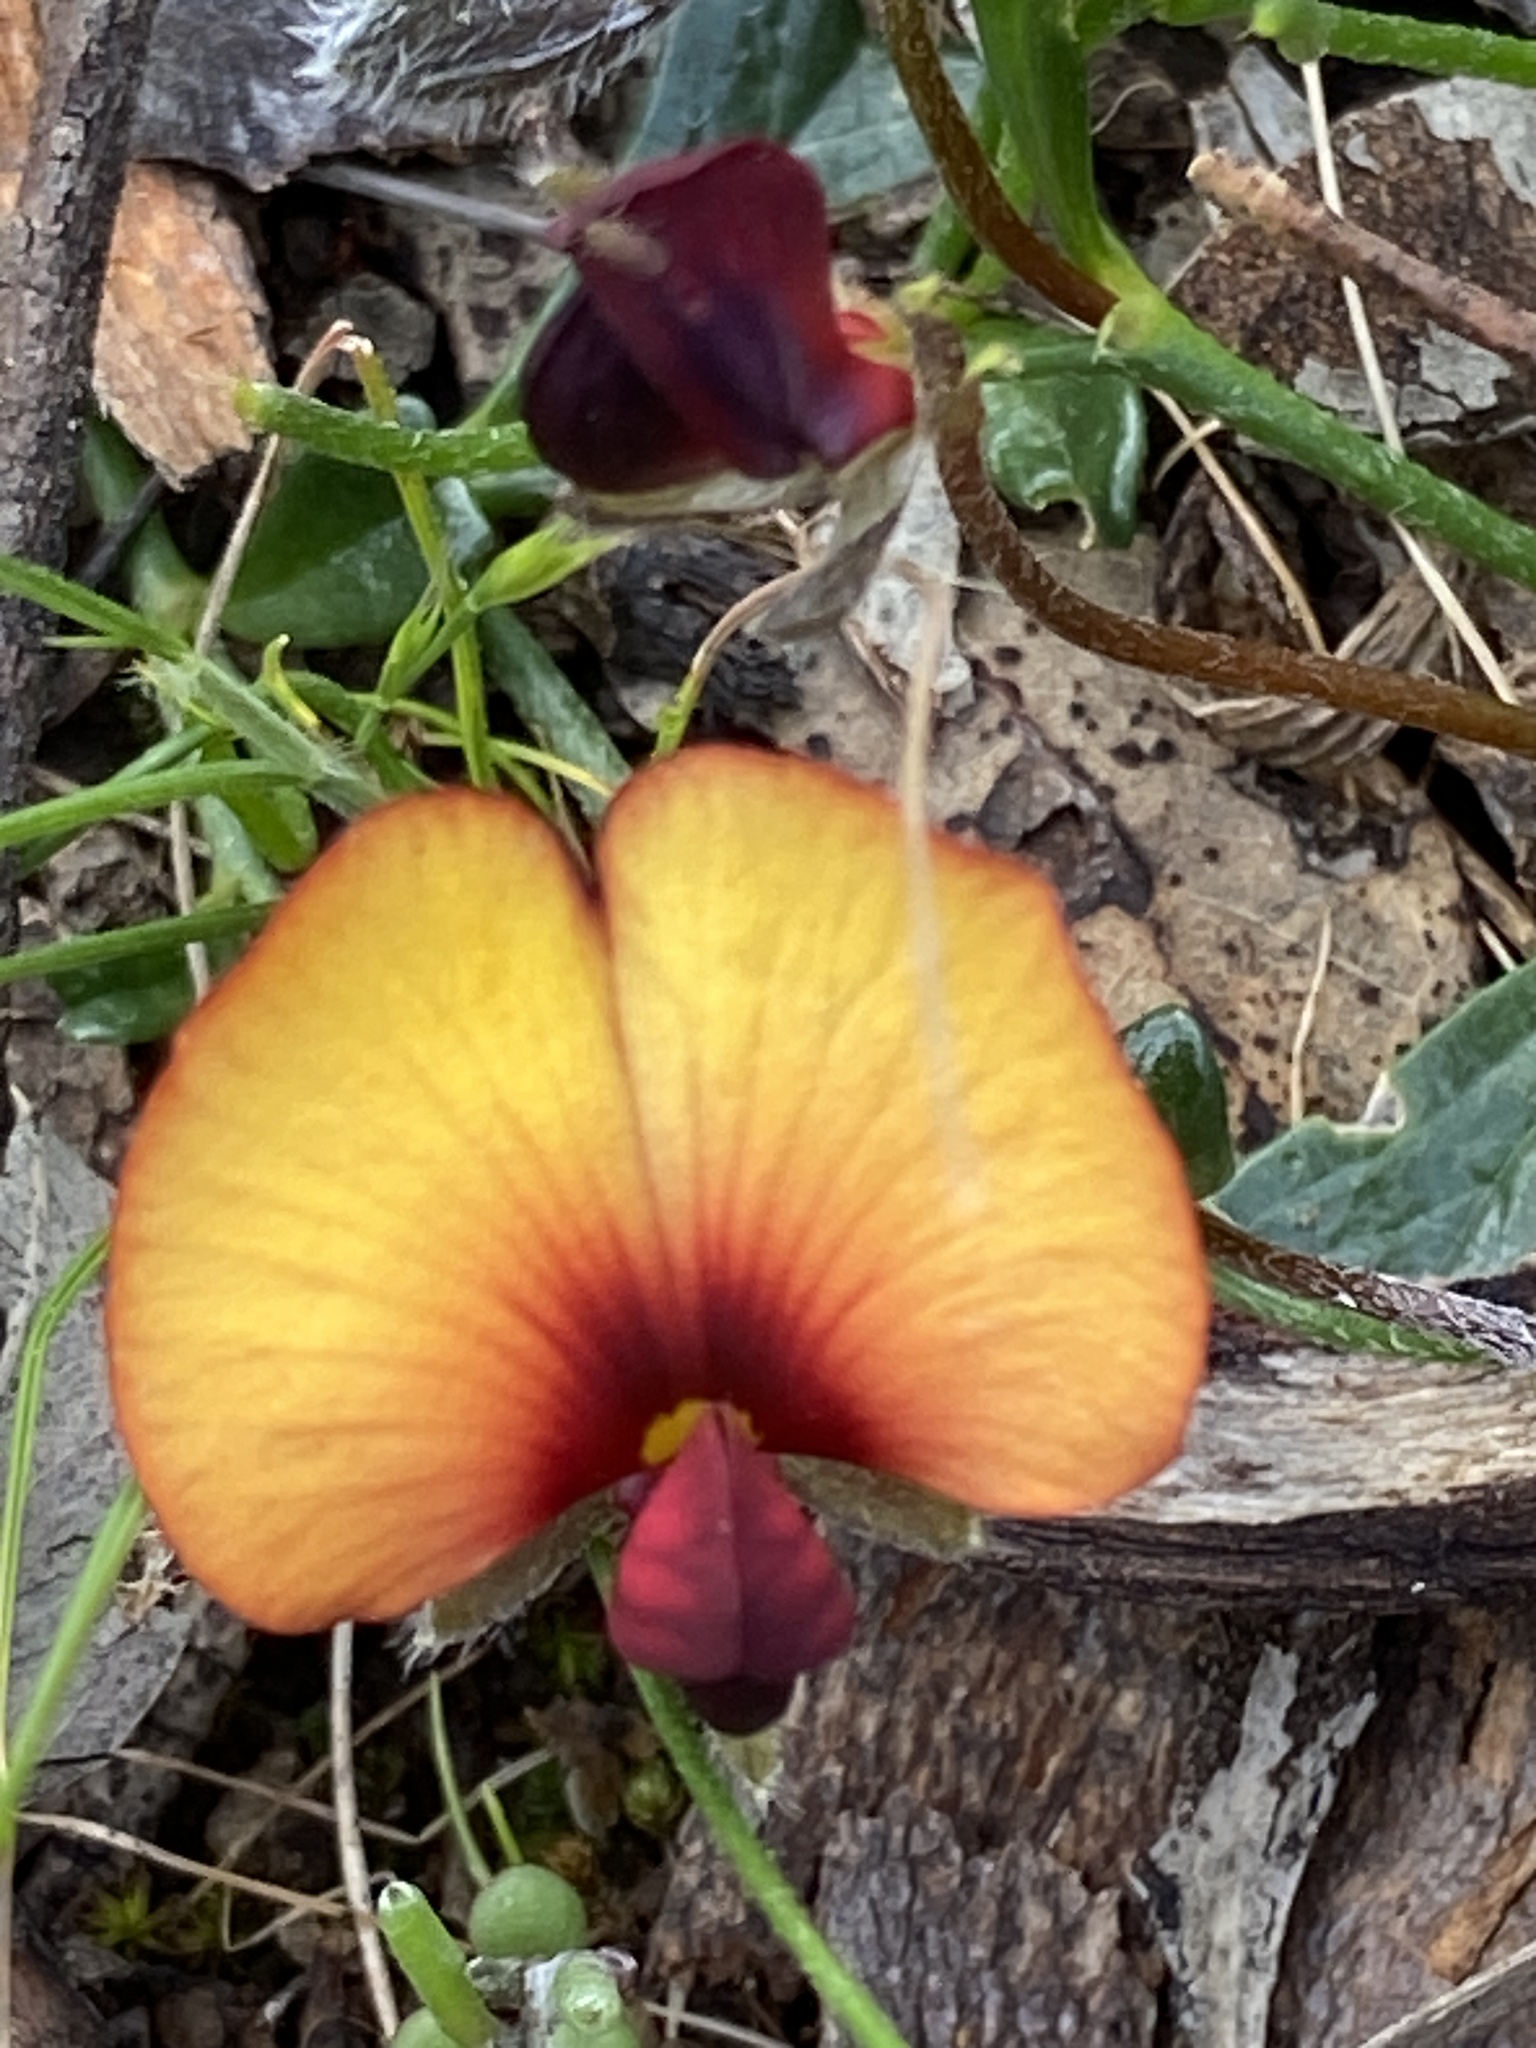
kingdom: Plantae
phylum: Tracheophyta
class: Magnoliopsida
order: Fabales
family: Fabaceae
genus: Isotropis
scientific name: Isotropis cuneifolia
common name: Granny bonnets
